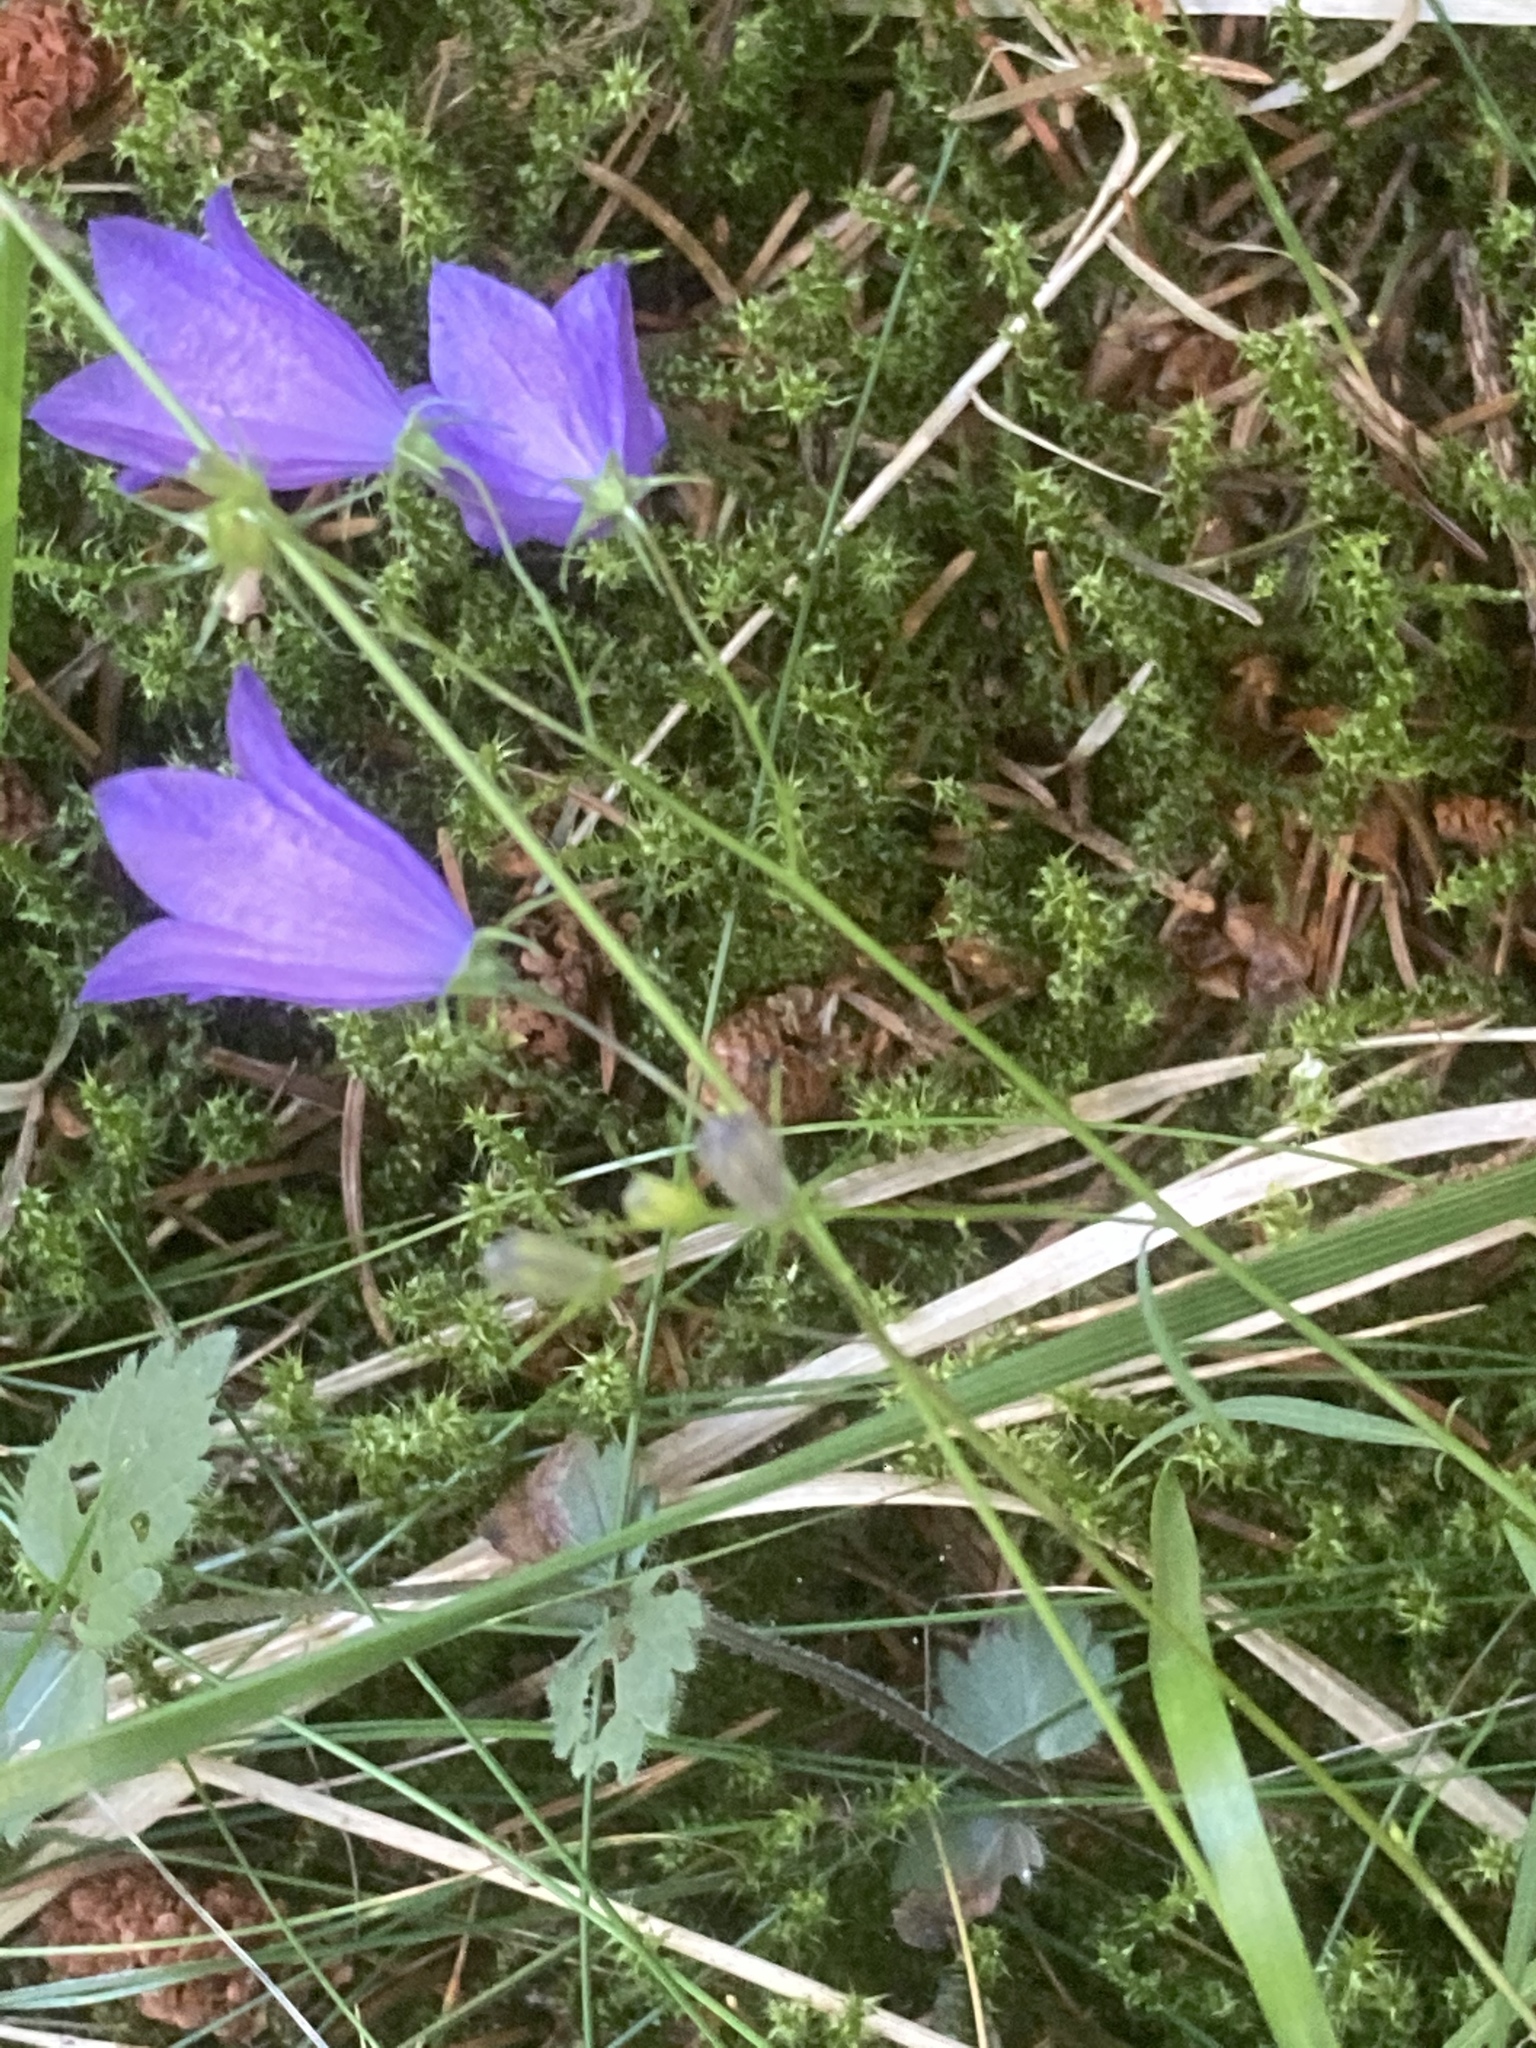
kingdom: Plantae
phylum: Tracheophyta
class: Magnoliopsida
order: Asterales
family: Campanulaceae
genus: Campanula
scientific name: Campanula rotundifolia
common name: Harebell
